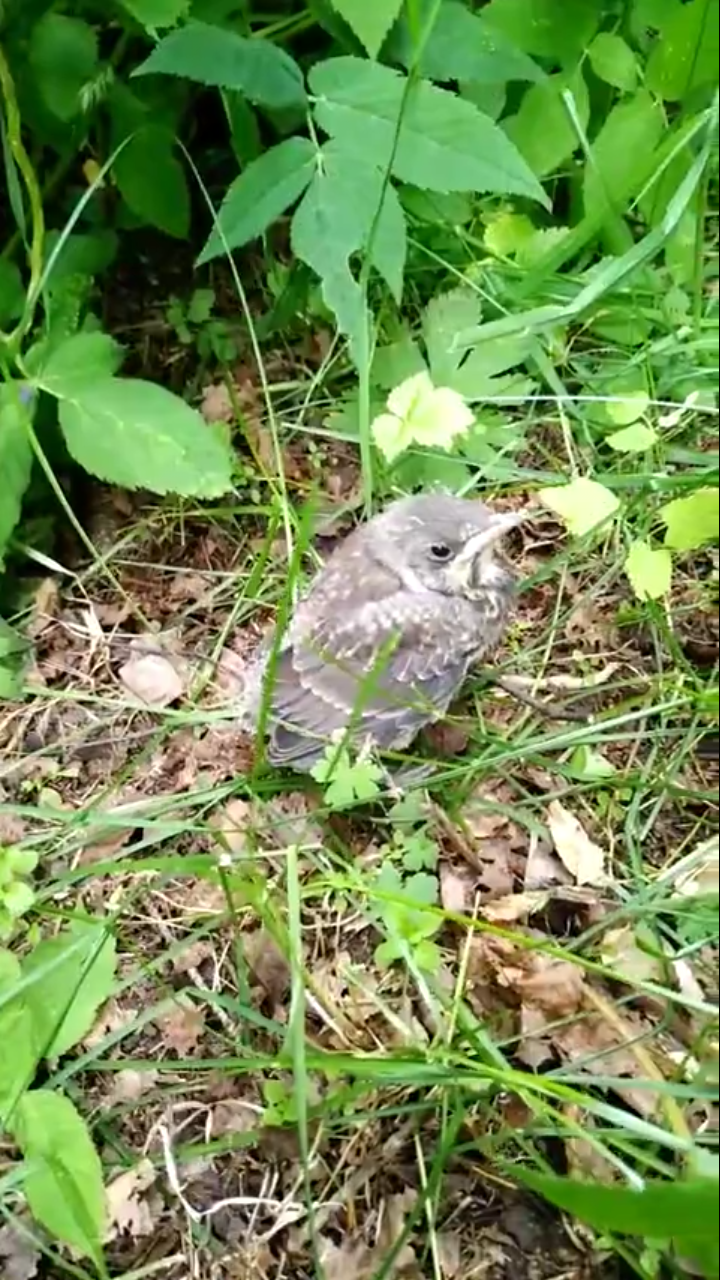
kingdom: Animalia
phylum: Chordata
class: Aves
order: Passeriformes
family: Turdidae
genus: Turdus
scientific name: Turdus pilaris
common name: Fieldfare
